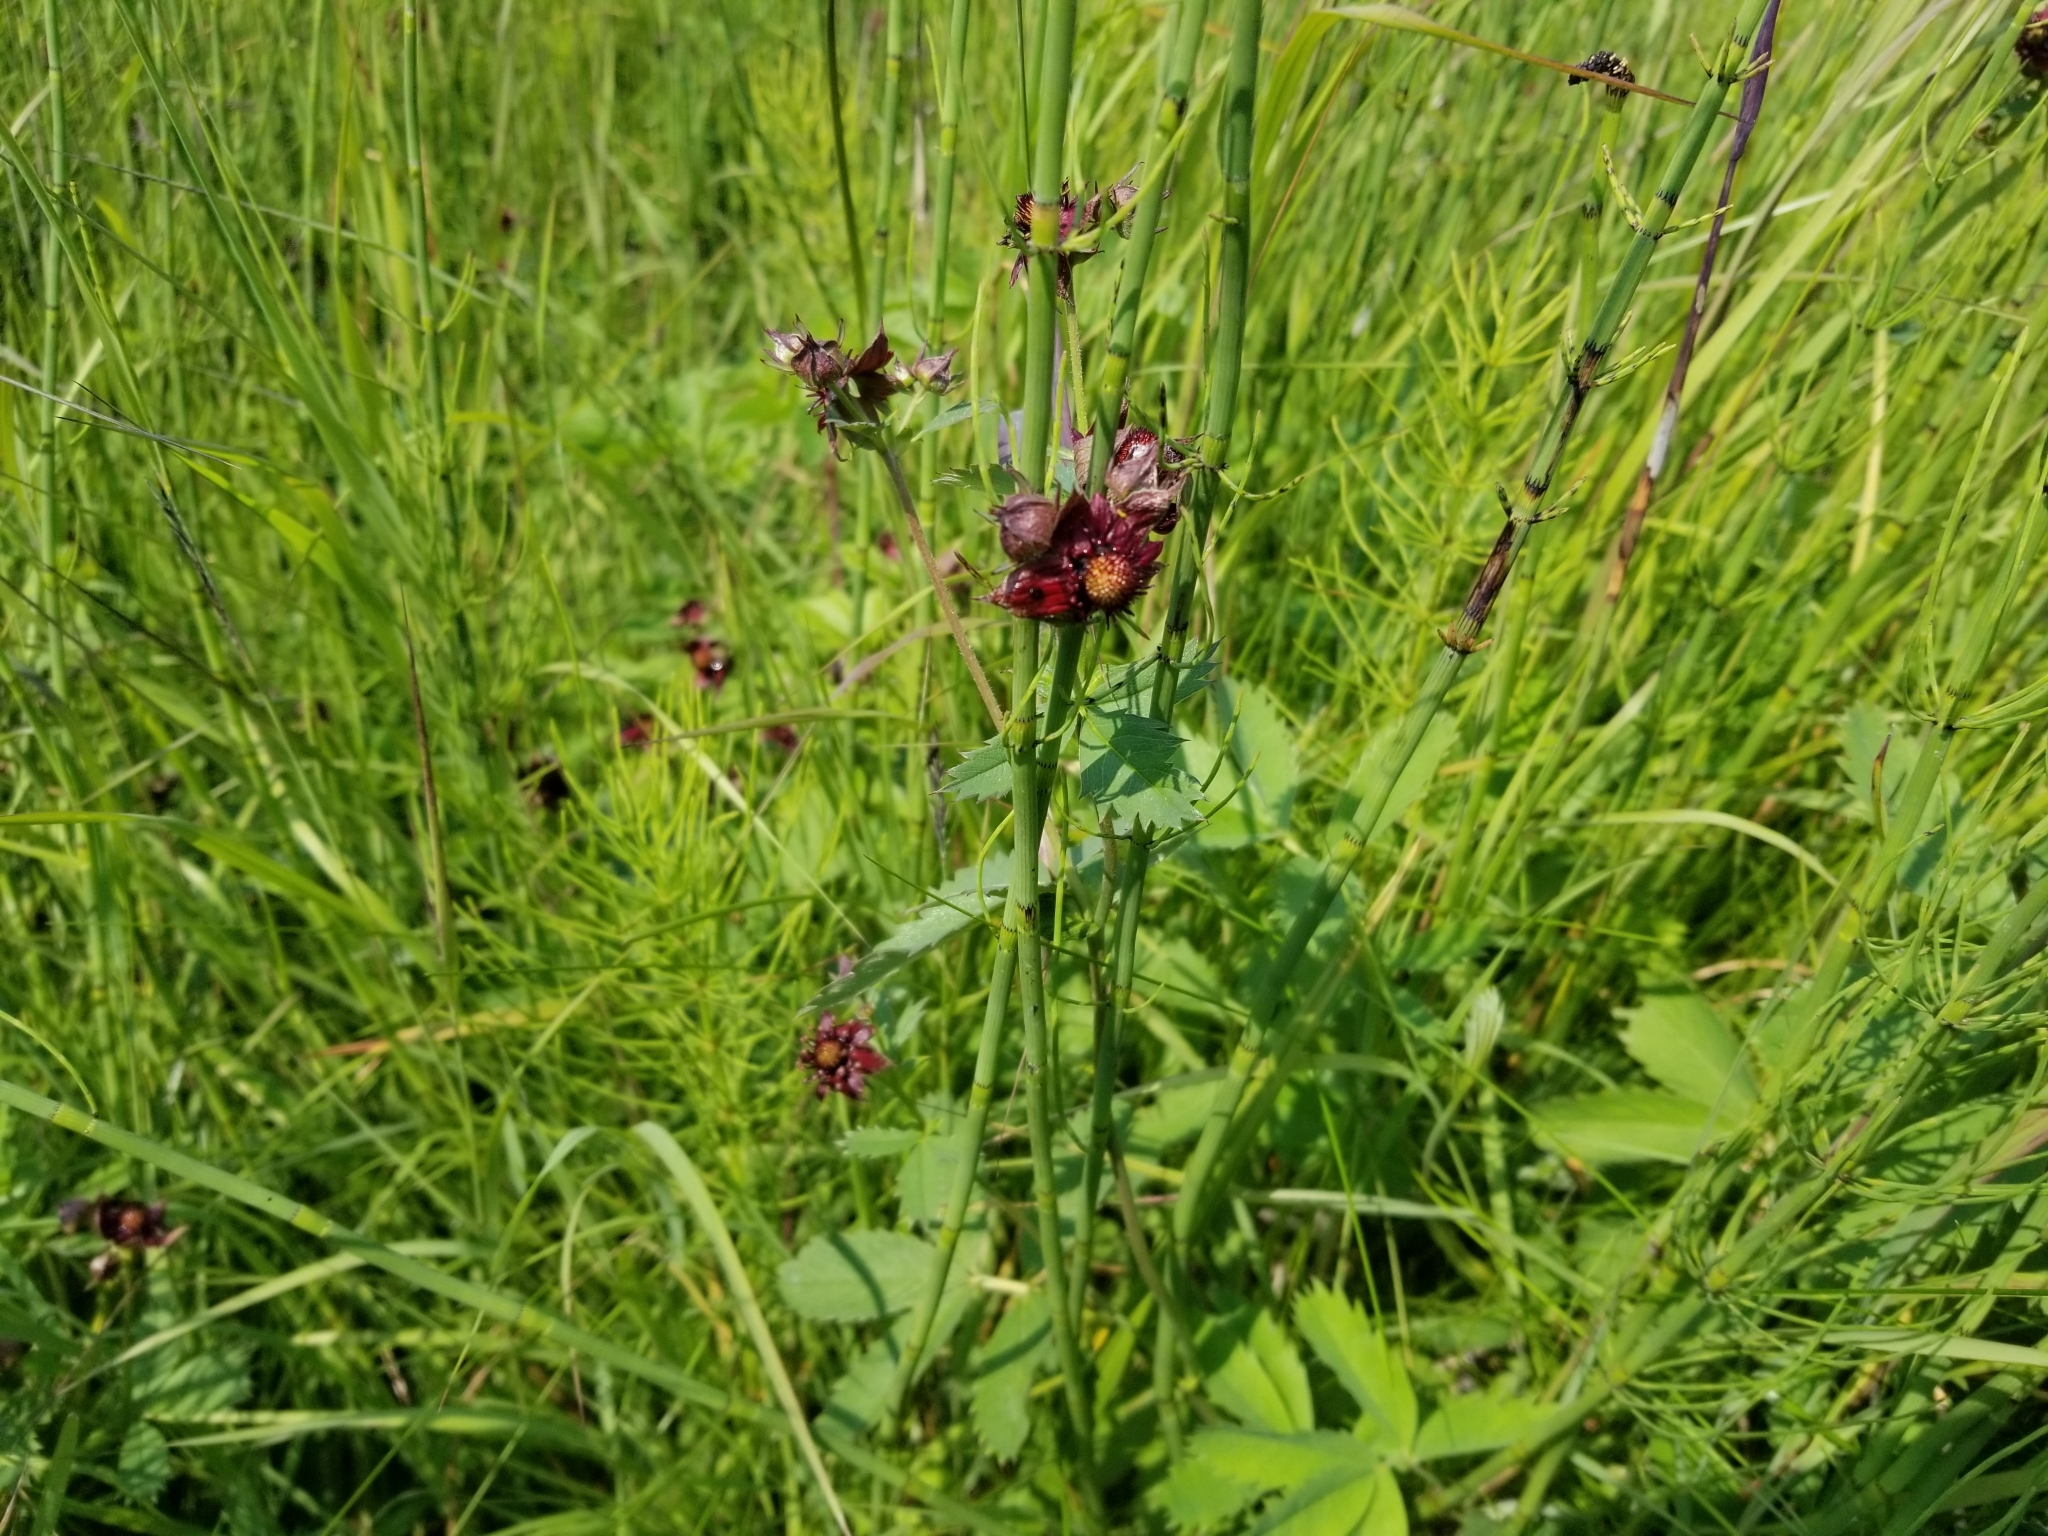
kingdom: Plantae
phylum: Tracheophyta
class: Magnoliopsida
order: Rosales
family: Rosaceae
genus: Comarum
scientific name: Comarum palustre
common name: Marsh cinquefoil
